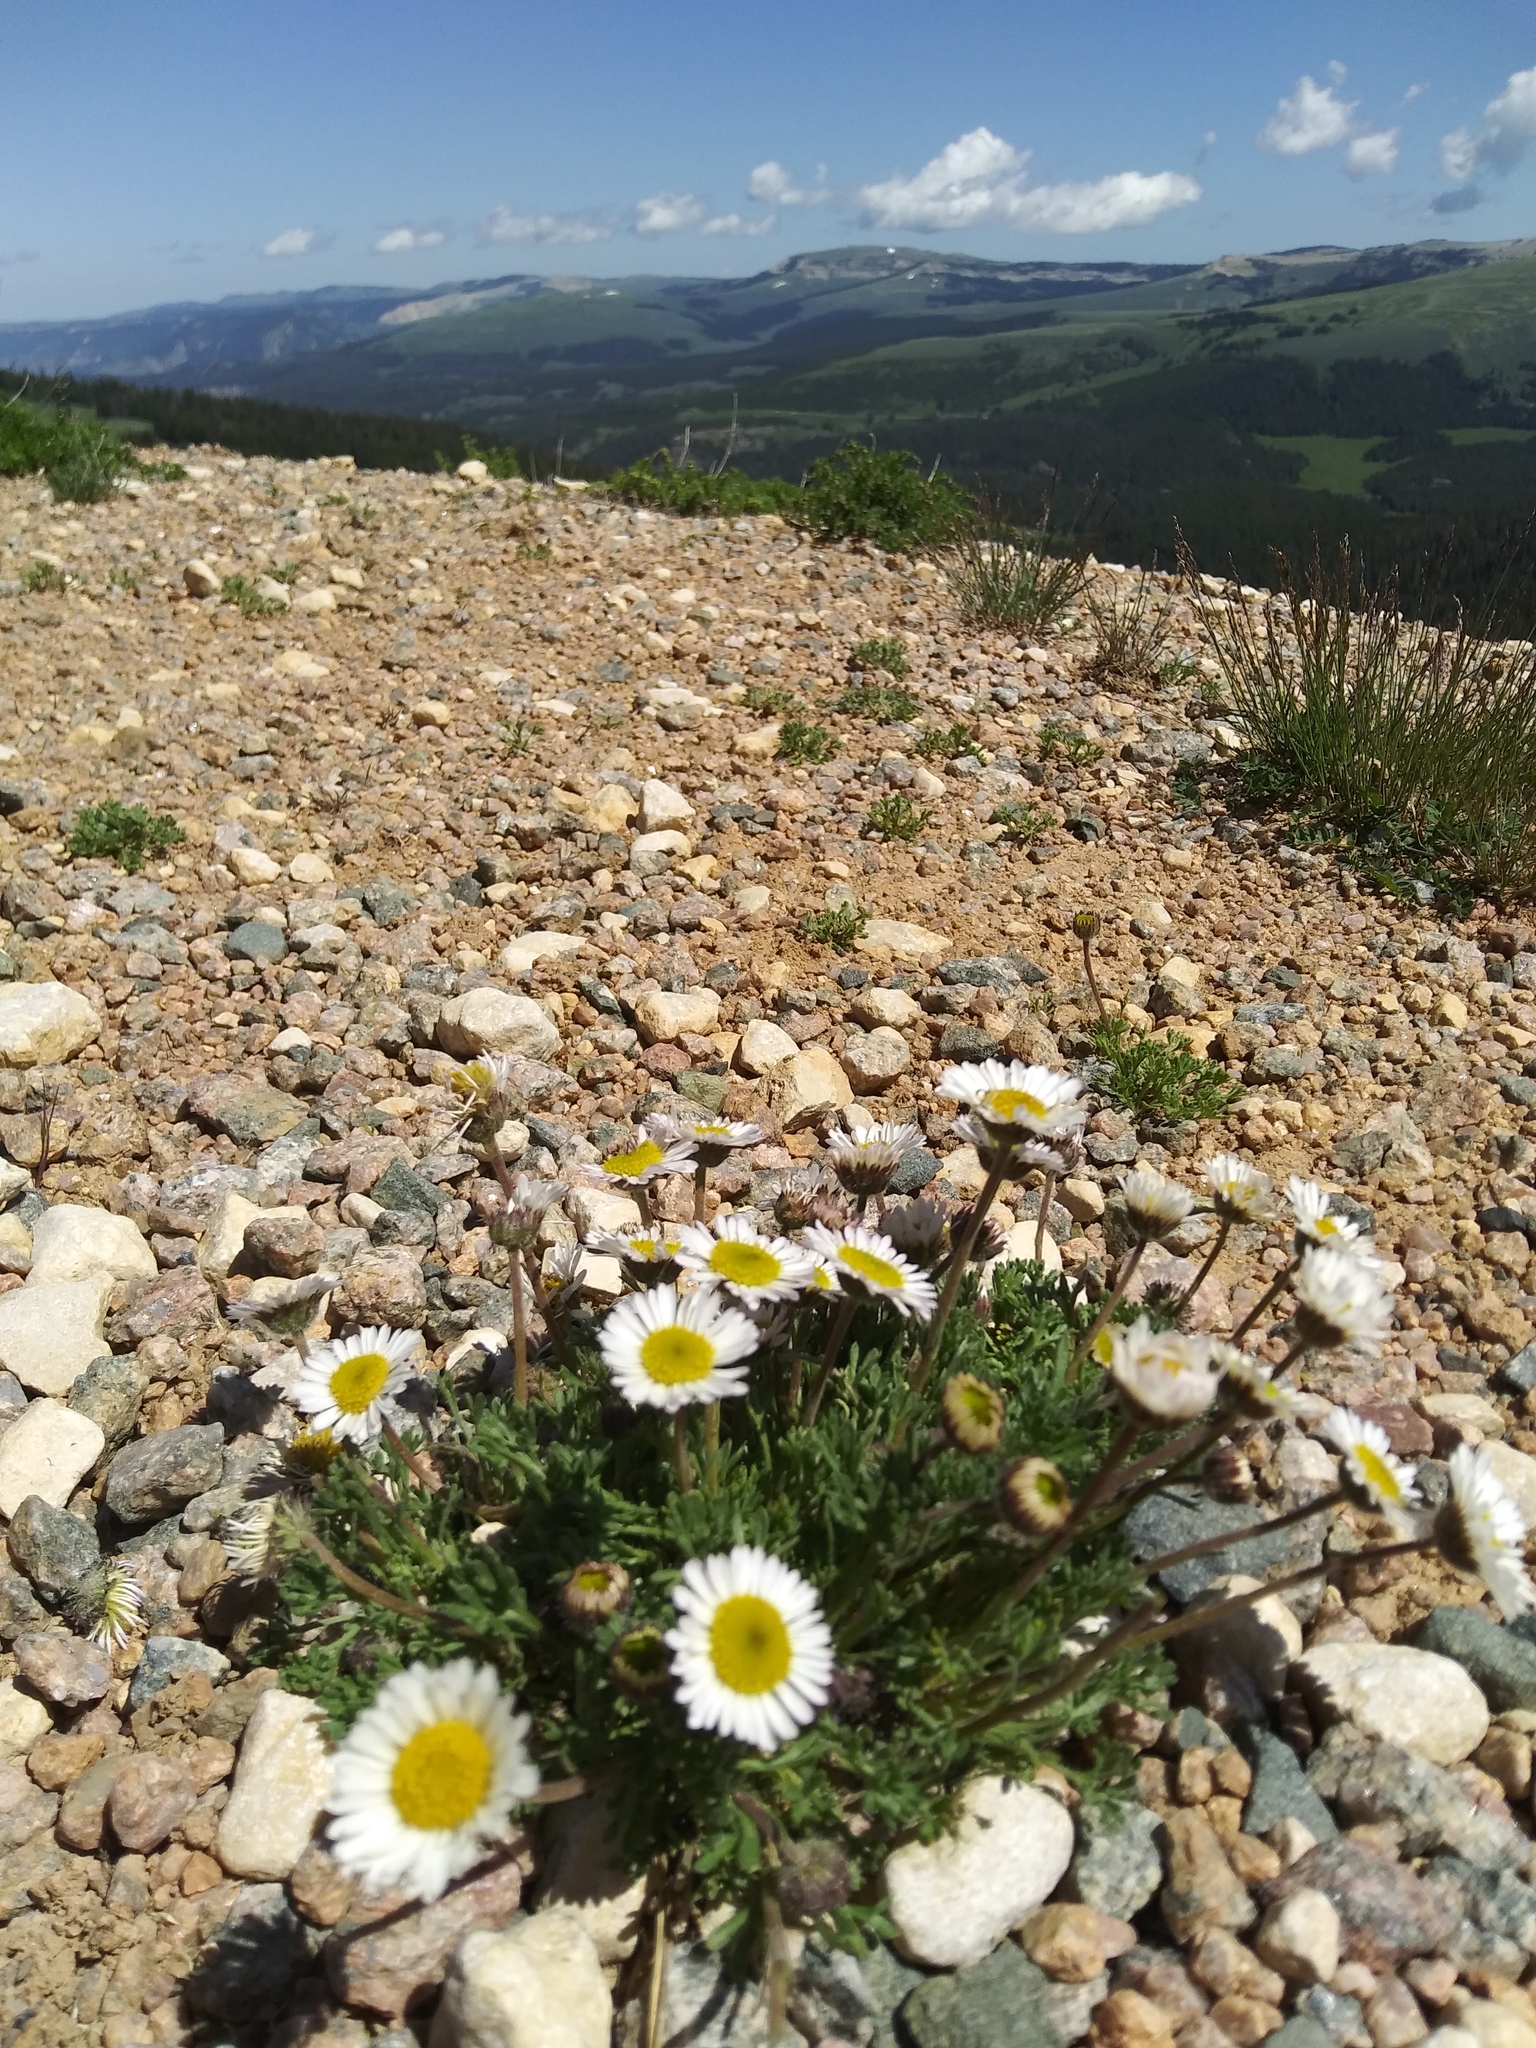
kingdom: Plantae
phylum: Tracheophyta
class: Magnoliopsida
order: Asterales
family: Asteraceae
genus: Erigeron
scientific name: Erigeron compositus
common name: Dwarf mountain fleabane
